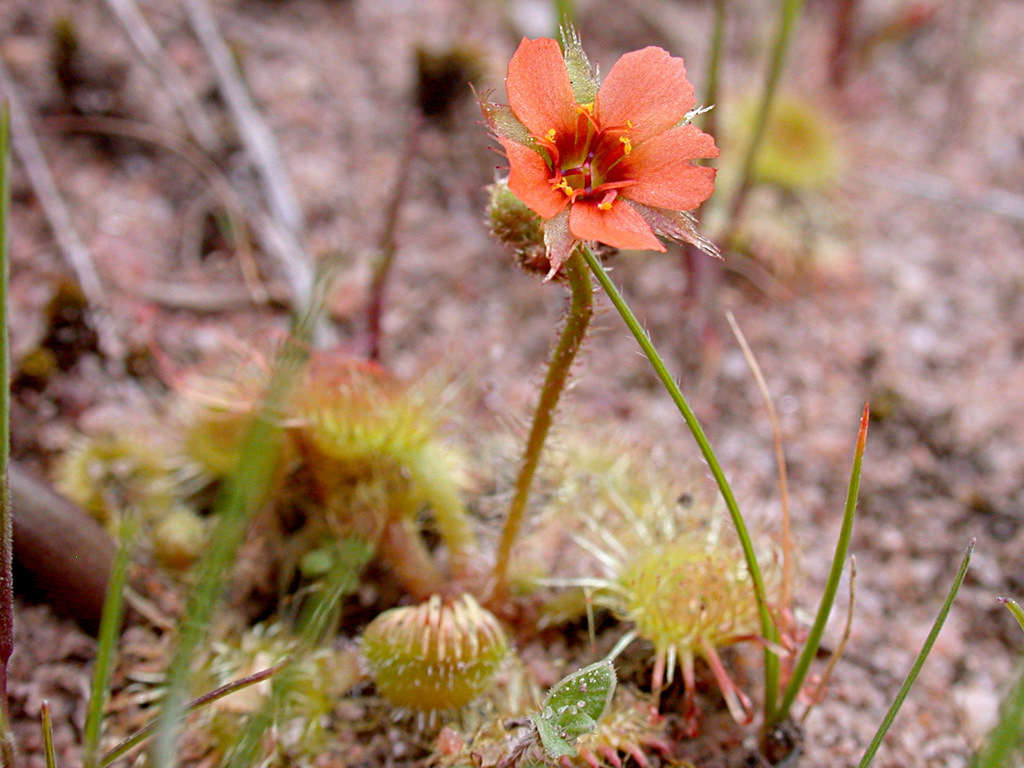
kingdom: Plantae
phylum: Tracheophyta
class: Magnoliopsida
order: Caryophyllales
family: Droseraceae
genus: Drosera
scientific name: Drosera glanduligera
